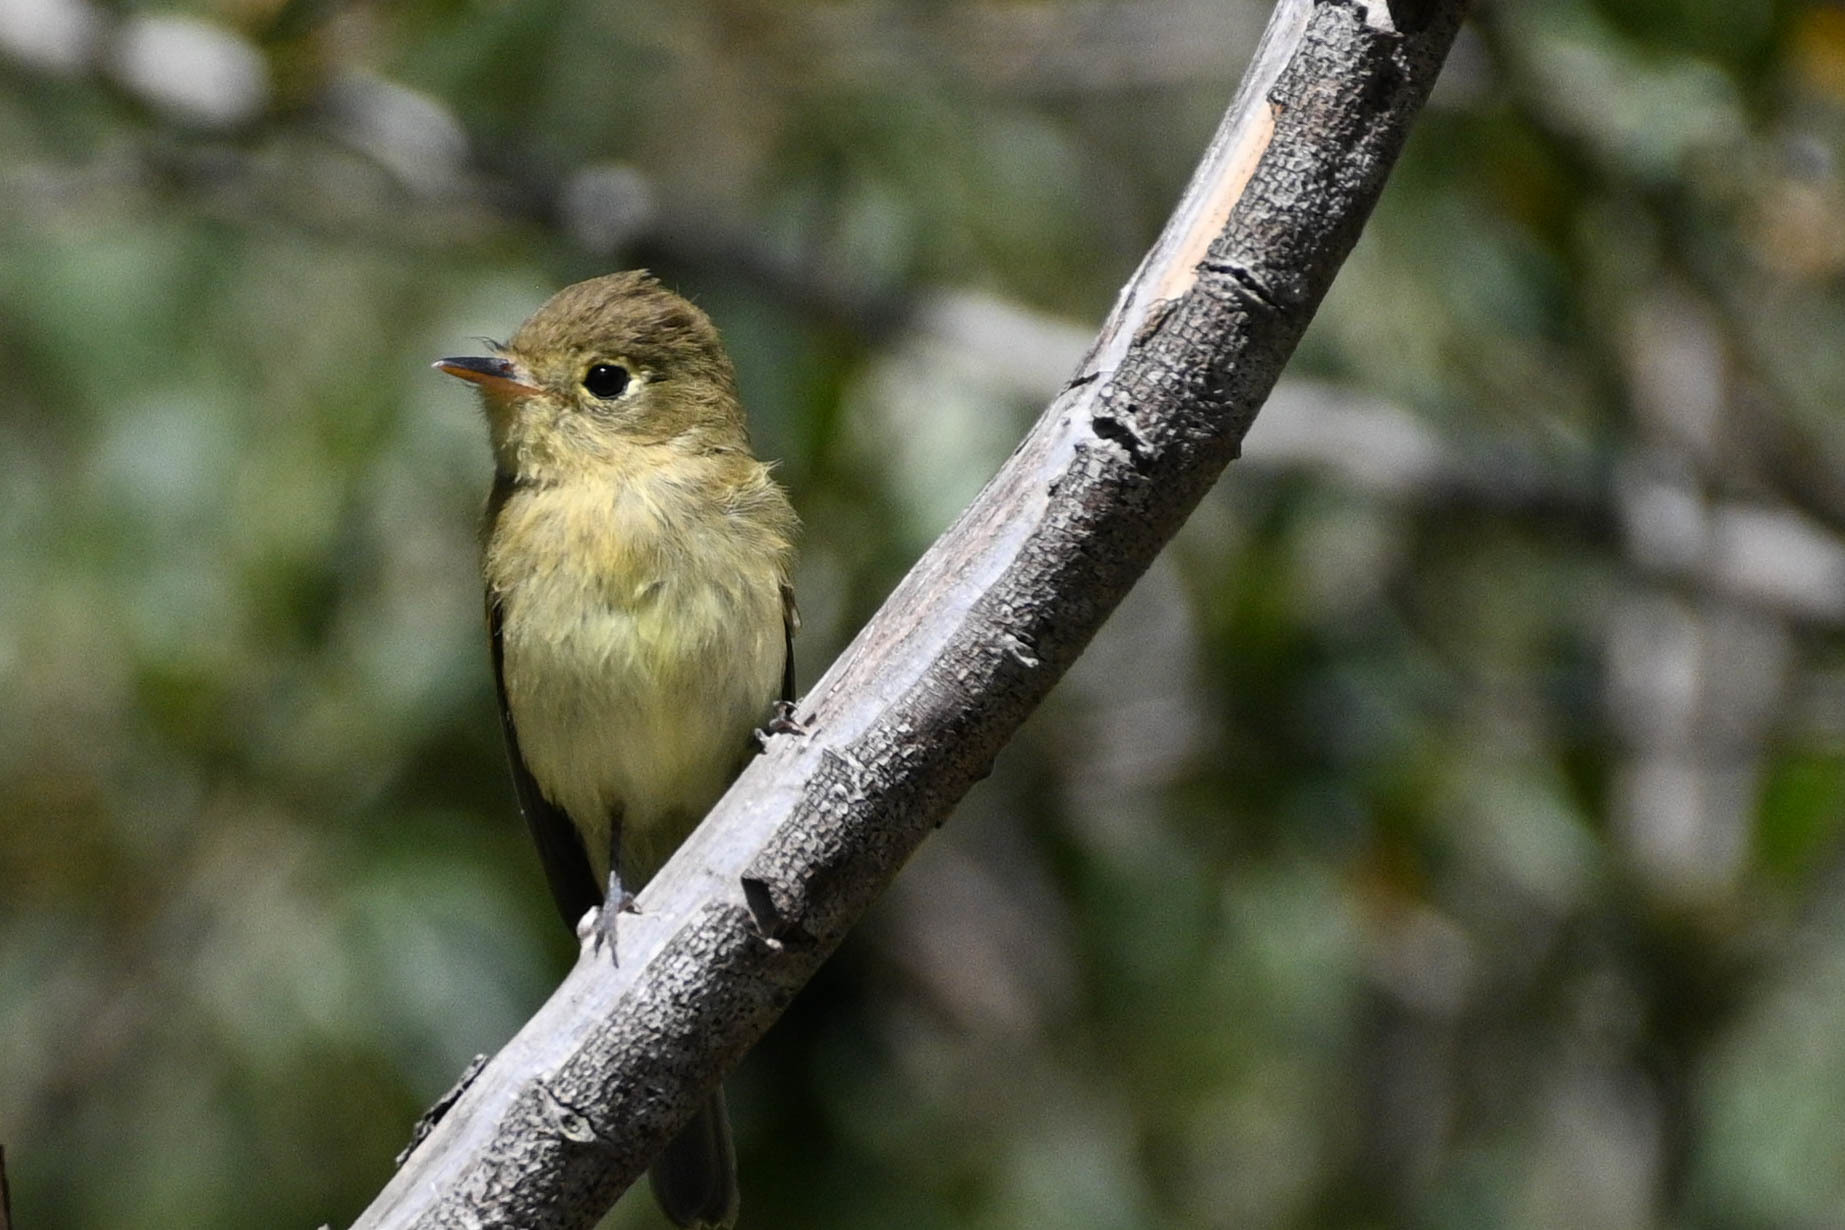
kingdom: Animalia
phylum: Chordata
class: Aves
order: Passeriformes
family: Tyrannidae
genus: Empidonax
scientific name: Empidonax difficilis
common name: Pacific-slope flycatcher
